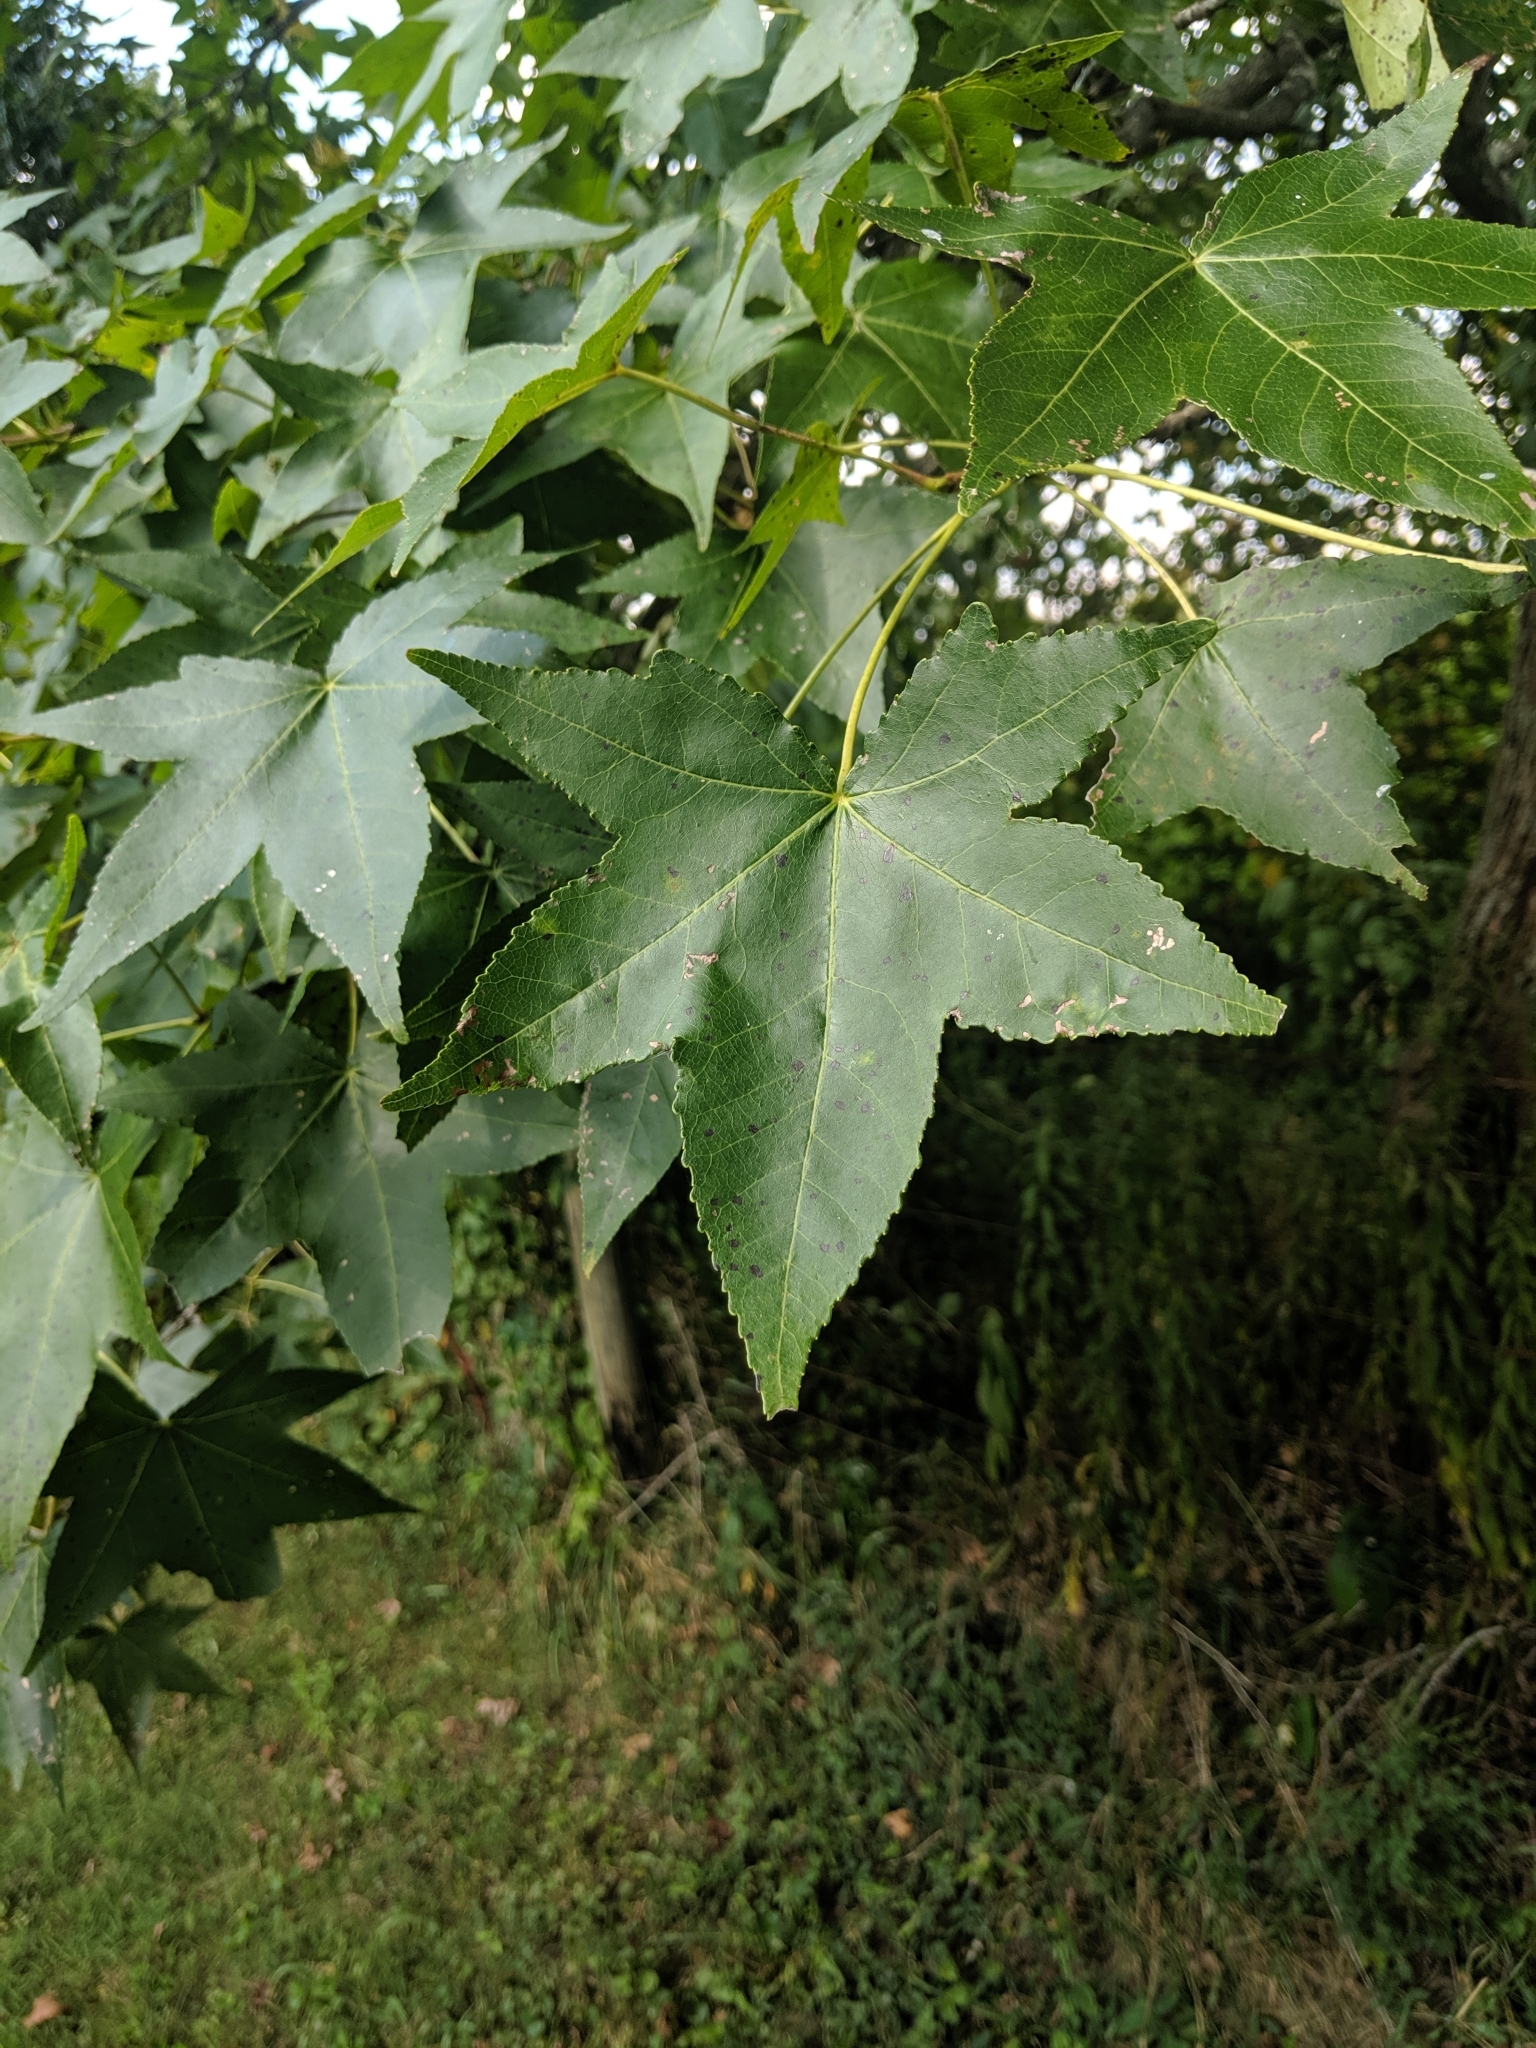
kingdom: Plantae
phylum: Tracheophyta
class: Magnoliopsida
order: Saxifragales
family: Altingiaceae
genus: Liquidambar
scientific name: Liquidambar styraciflua
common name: Sweet gum
